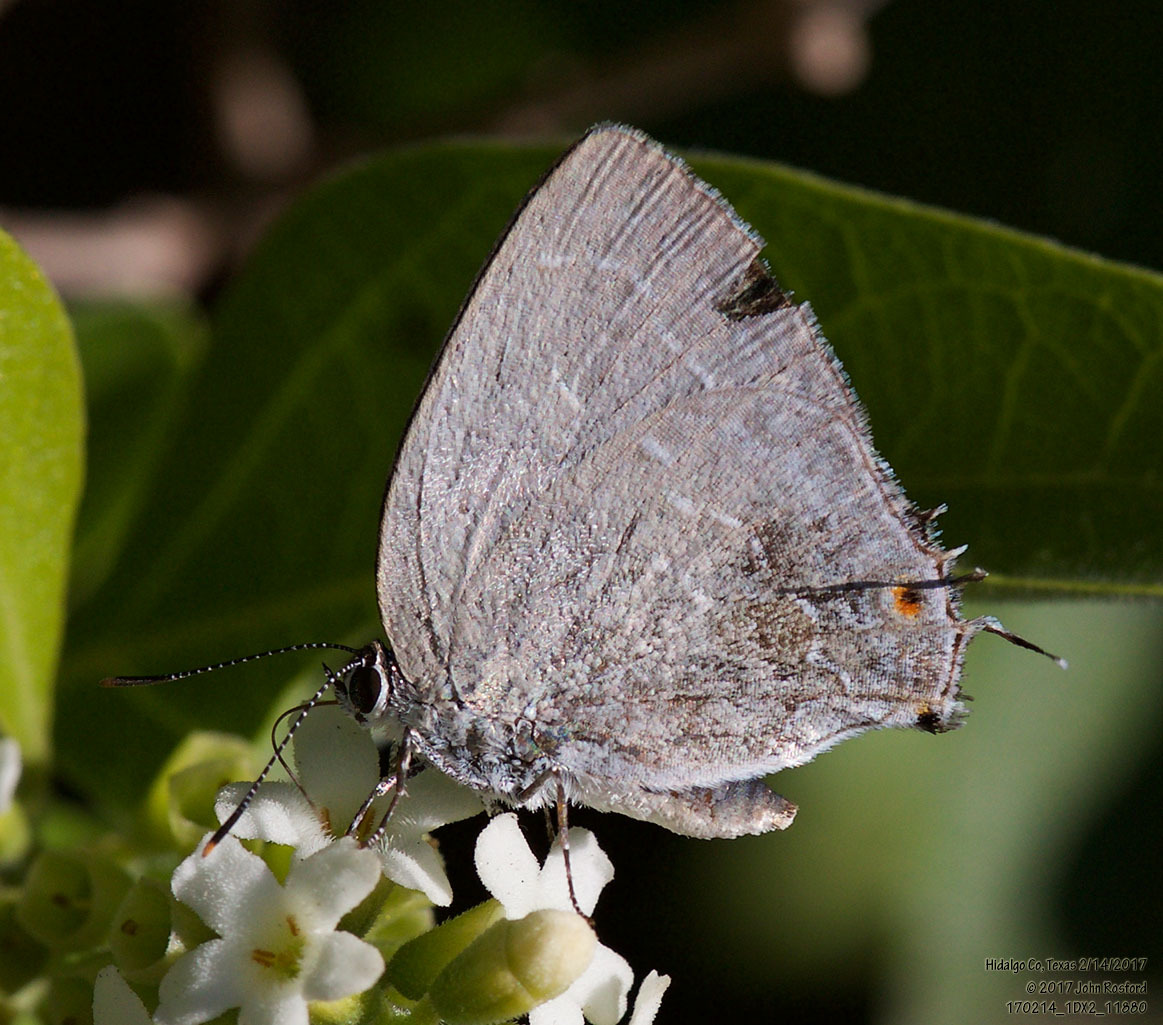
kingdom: Animalia
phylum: Arthropoda
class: Insecta
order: Lepidoptera
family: Lycaenidae
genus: Strephonota
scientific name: Strephonota tephraeus
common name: Pearly-gray hairstreak
